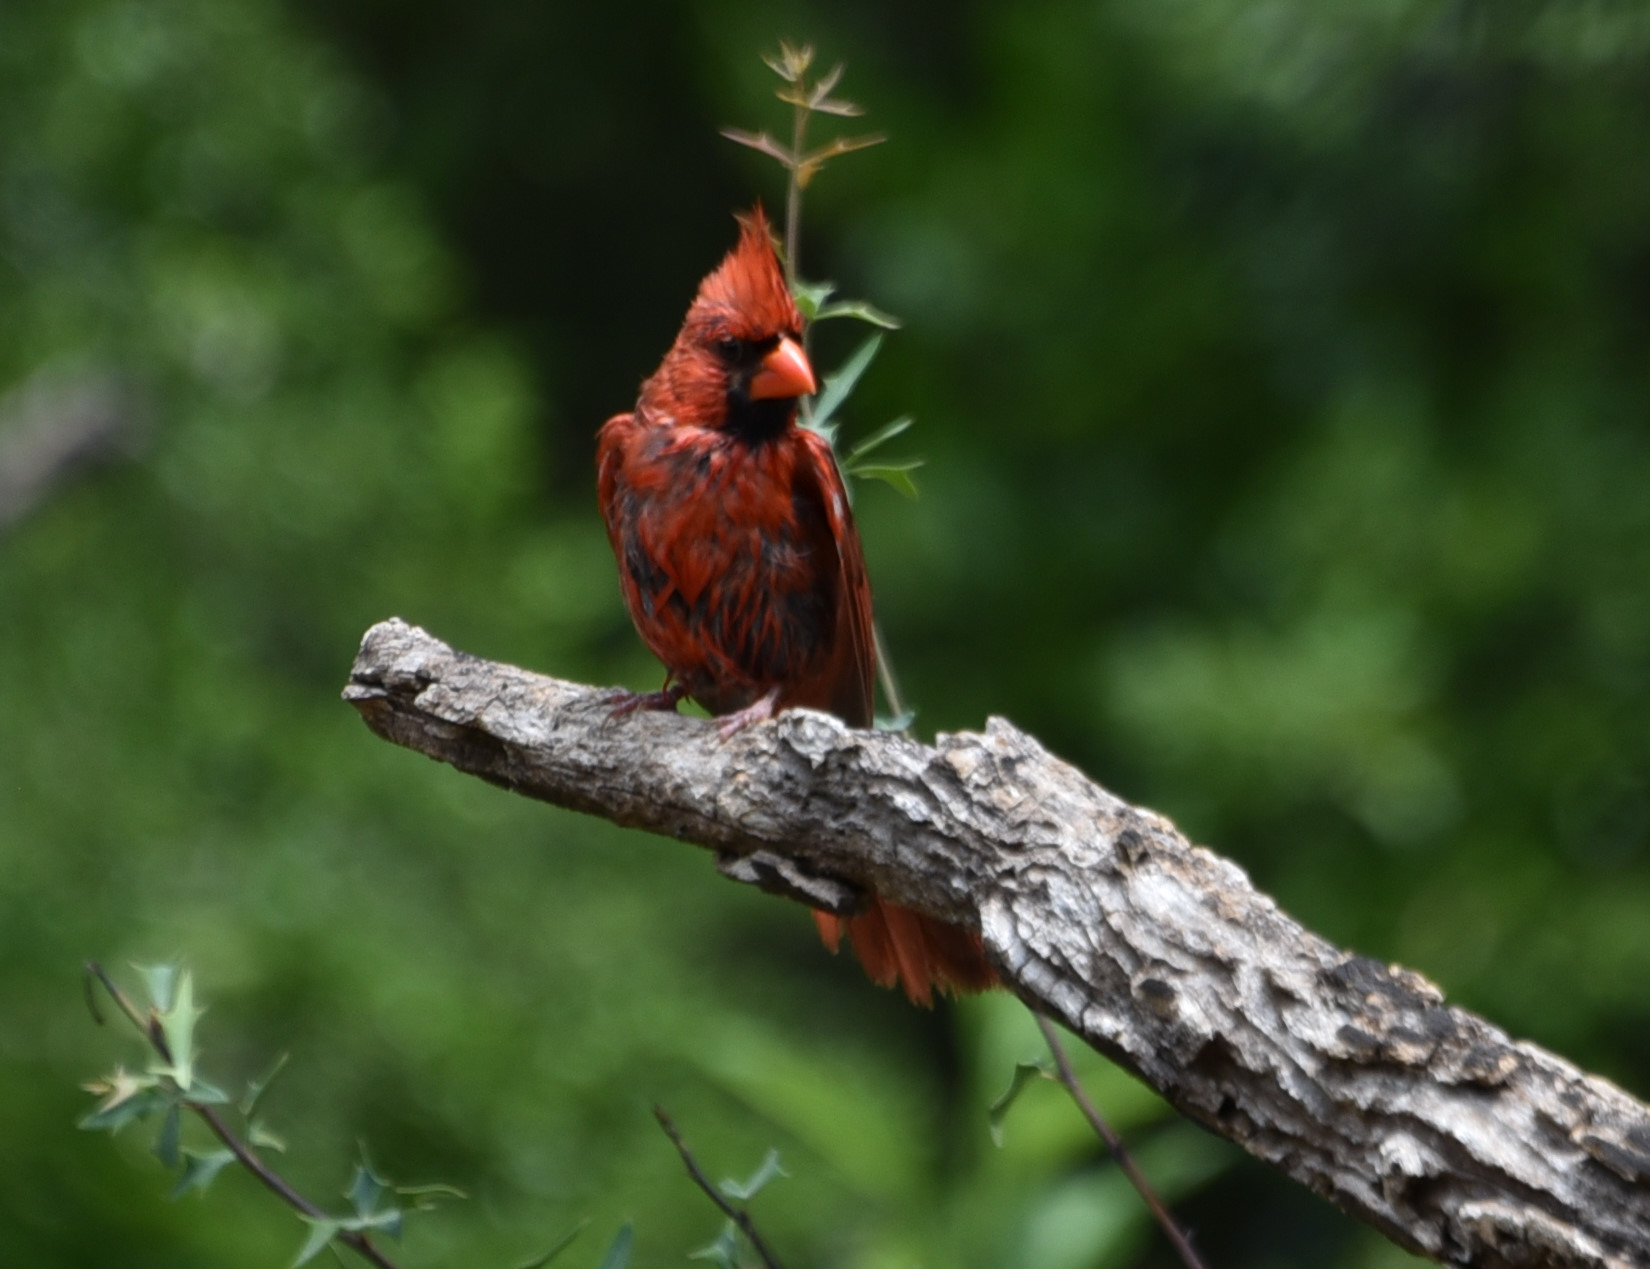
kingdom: Animalia
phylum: Chordata
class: Aves
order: Passeriformes
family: Cardinalidae
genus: Cardinalis
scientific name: Cardinalis cardinalis
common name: Northern cardinal
